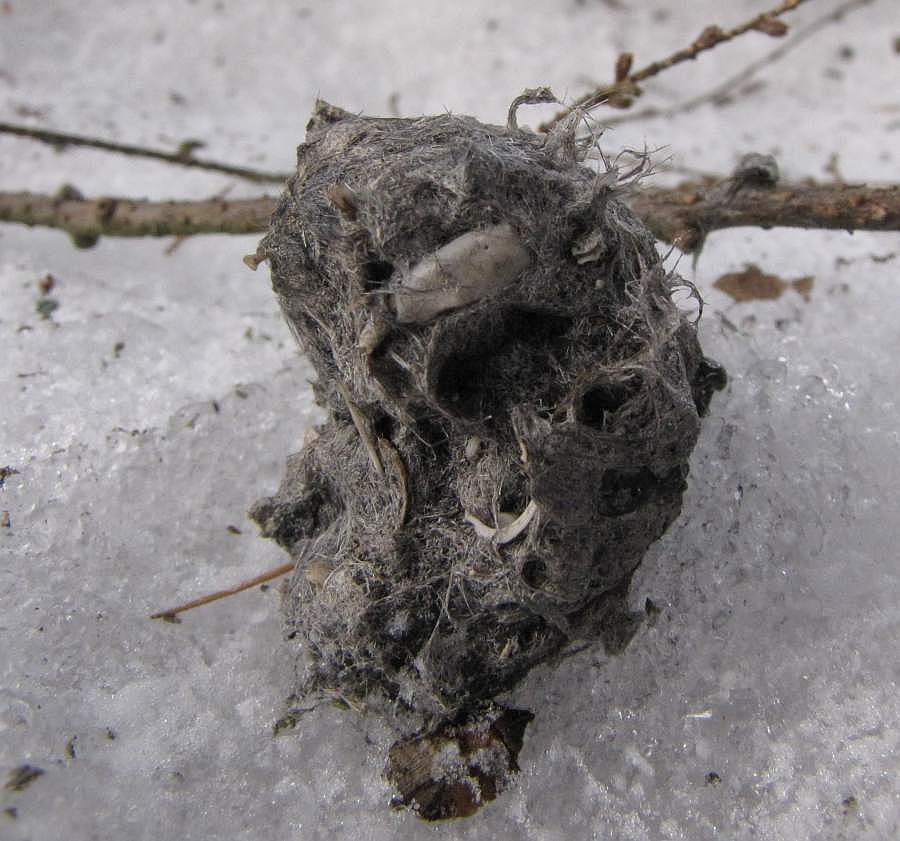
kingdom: Animalia
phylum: Chordata
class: Aves
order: Strigiformes
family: Strigidae
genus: Bubo
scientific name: Bubo virginianus
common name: Great horned owl
